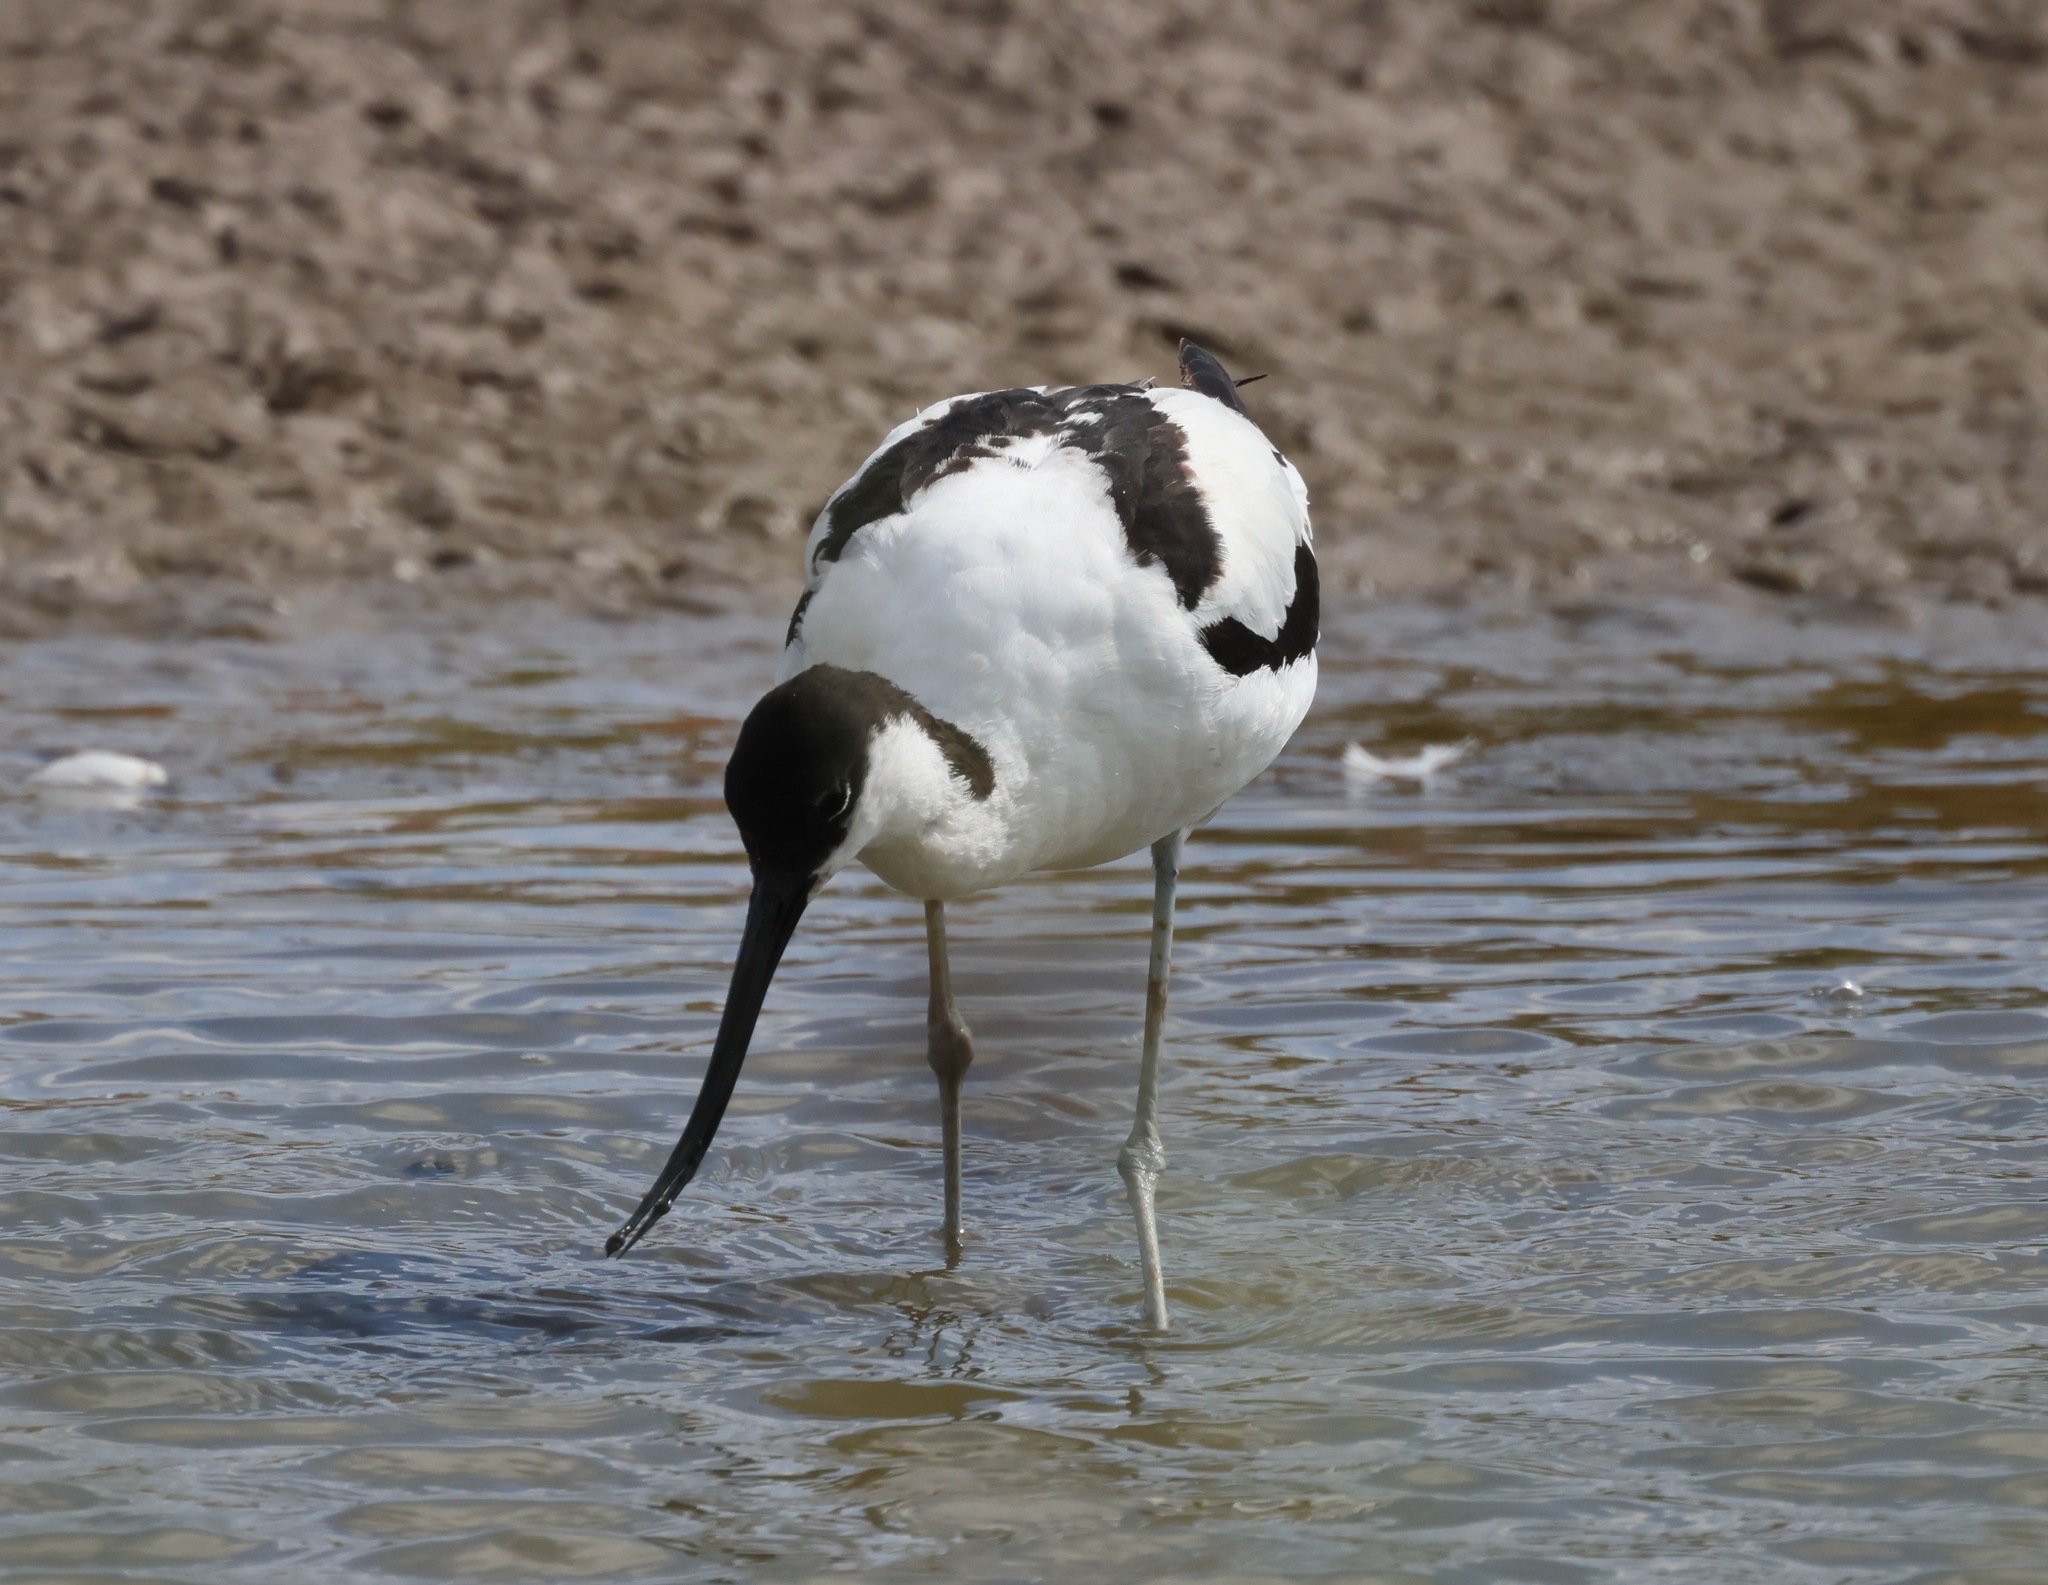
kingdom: Animalia
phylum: Chordata
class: Aves
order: Charadriiformes
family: Recurvirostridae
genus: Recurvirostra
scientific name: Recurvirostra avosetta
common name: Pied avocet
